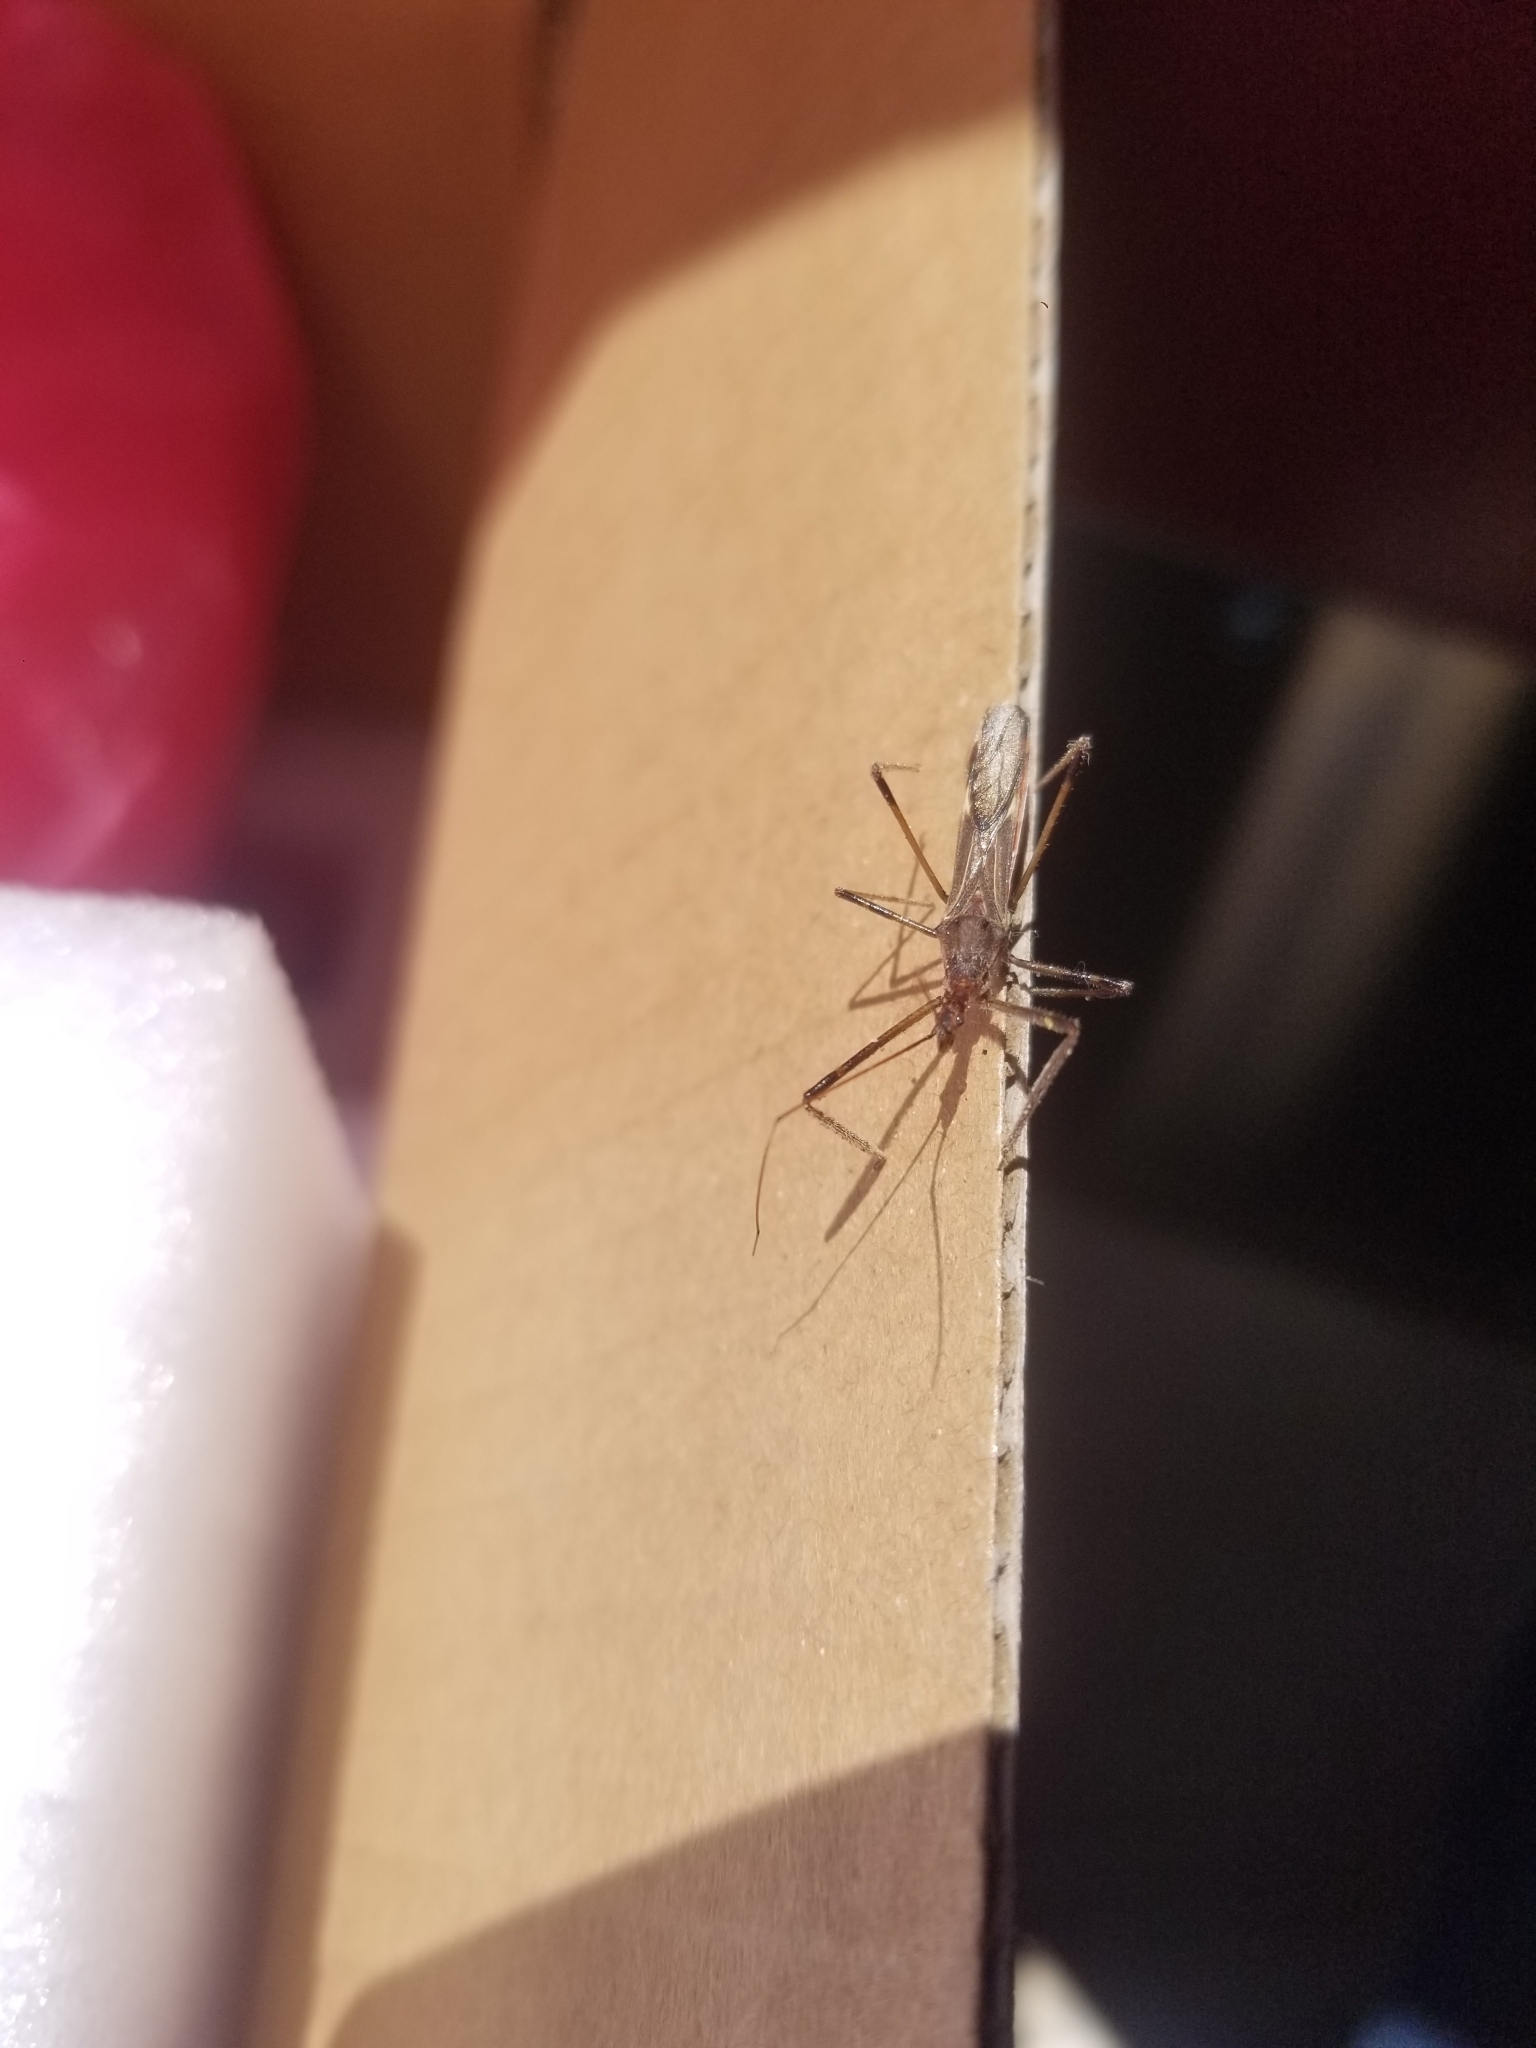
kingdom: Animalia
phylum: Arthropoda
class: Insecta
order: Hemiptera
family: Reduviidae
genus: Zelus
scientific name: Zelus tetracanthus
